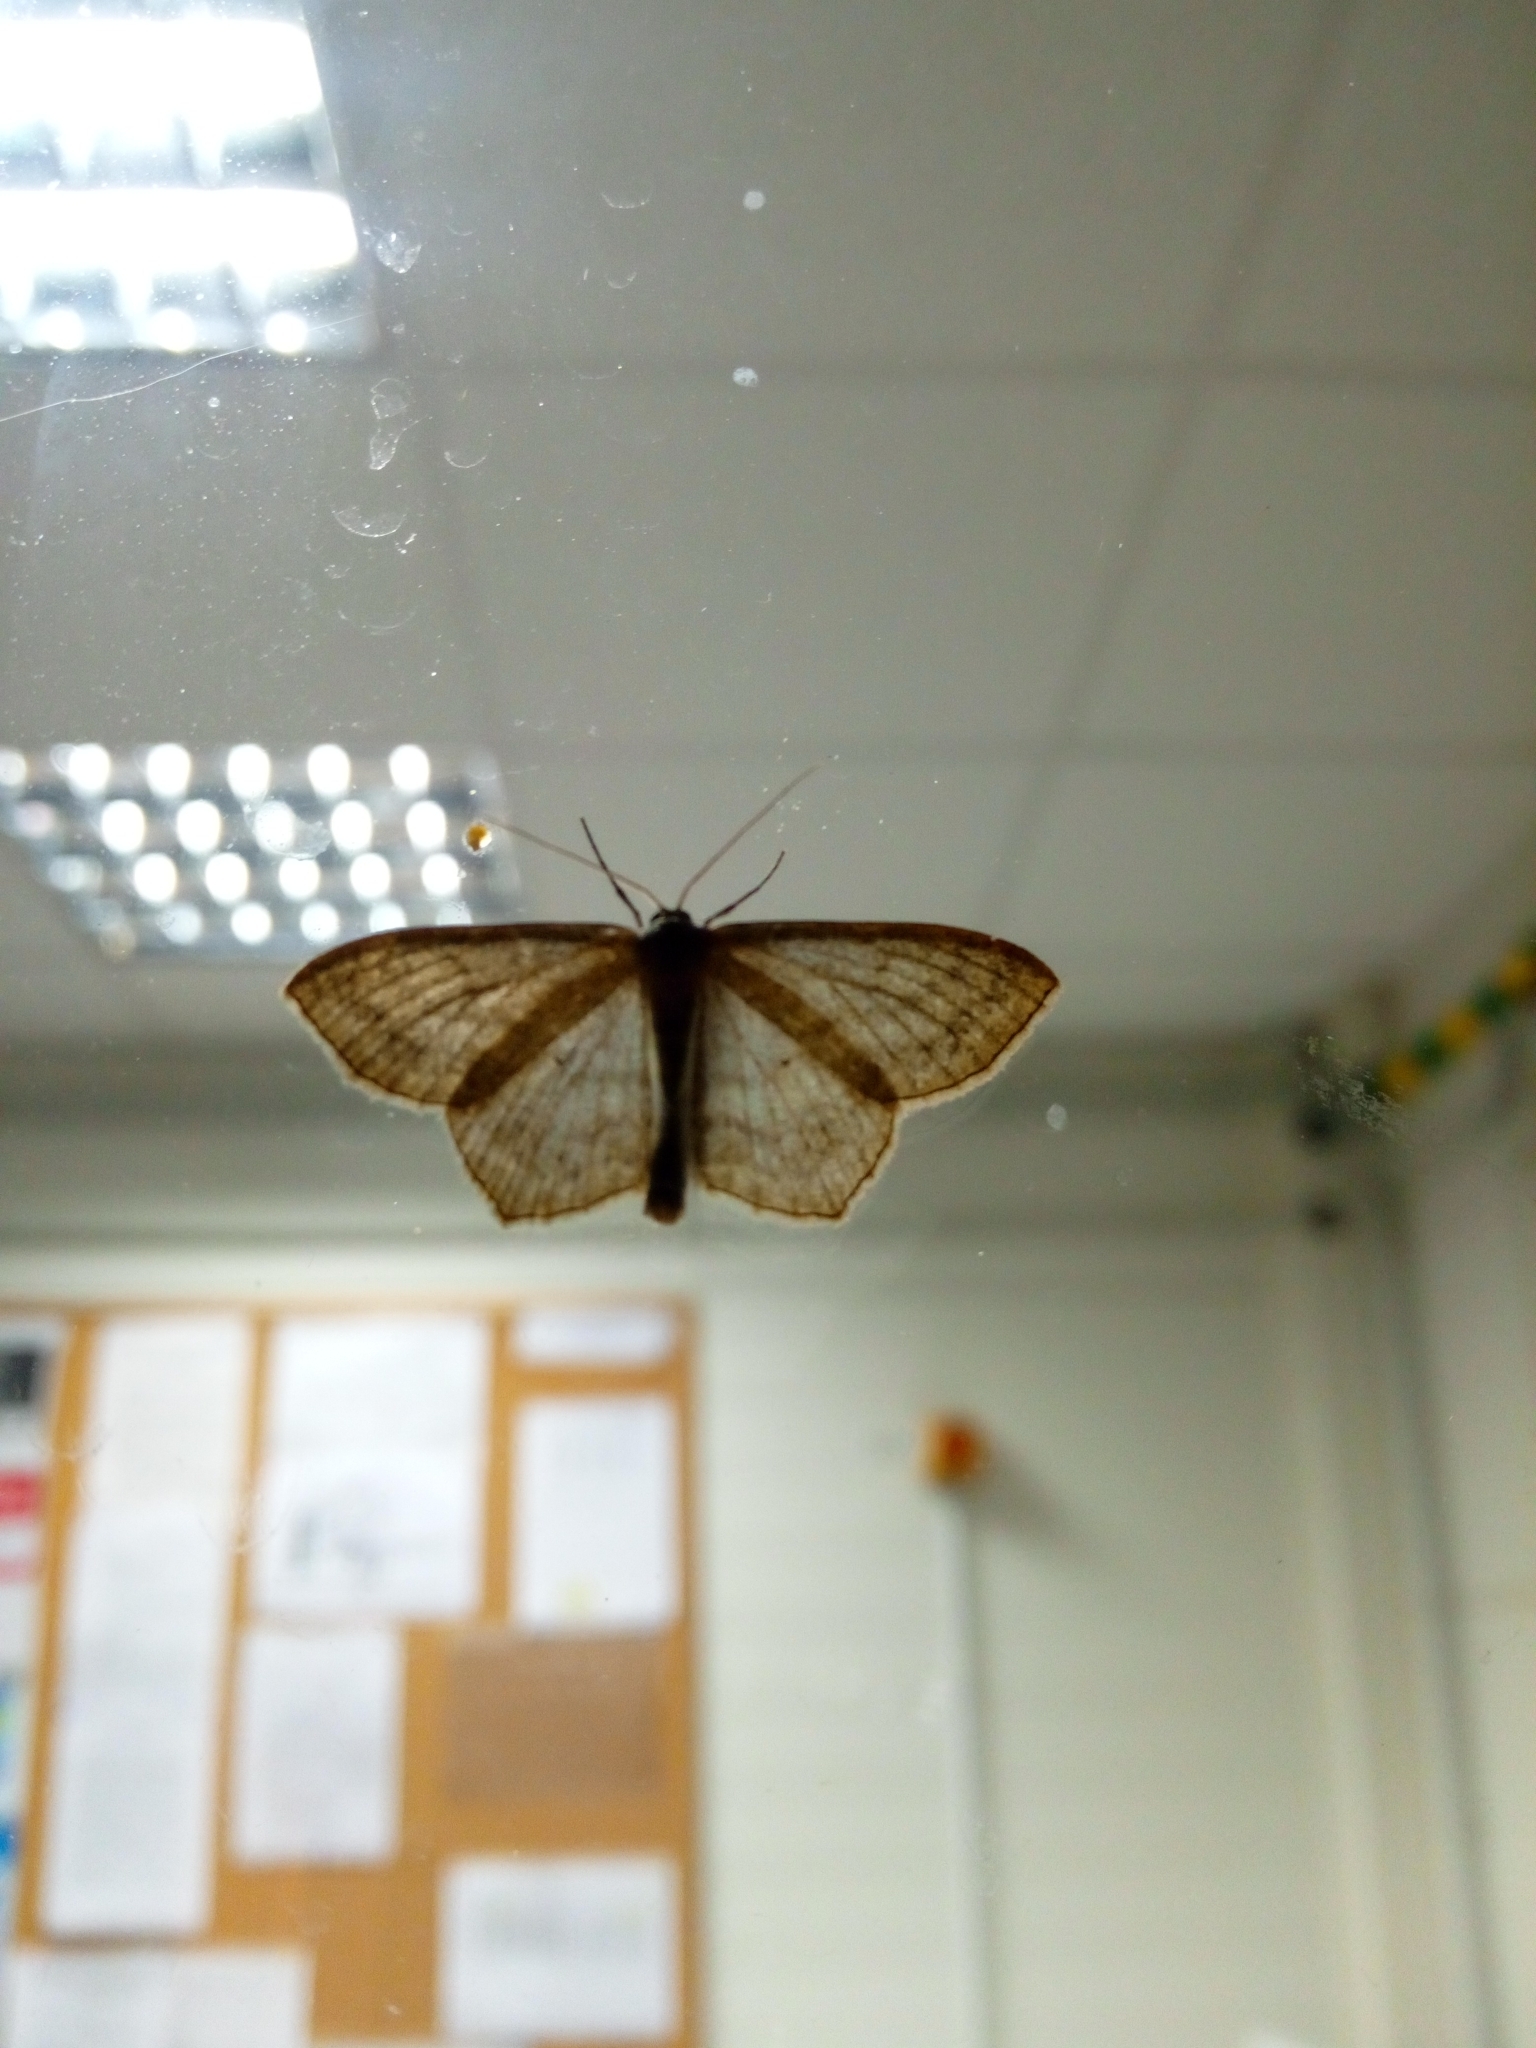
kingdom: Animalia
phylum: Arthropoda
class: Insecta
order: Lepidoptera
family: Geometridae
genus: Scopula
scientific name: Scopula nigropunctata
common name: Sub-angled wave
